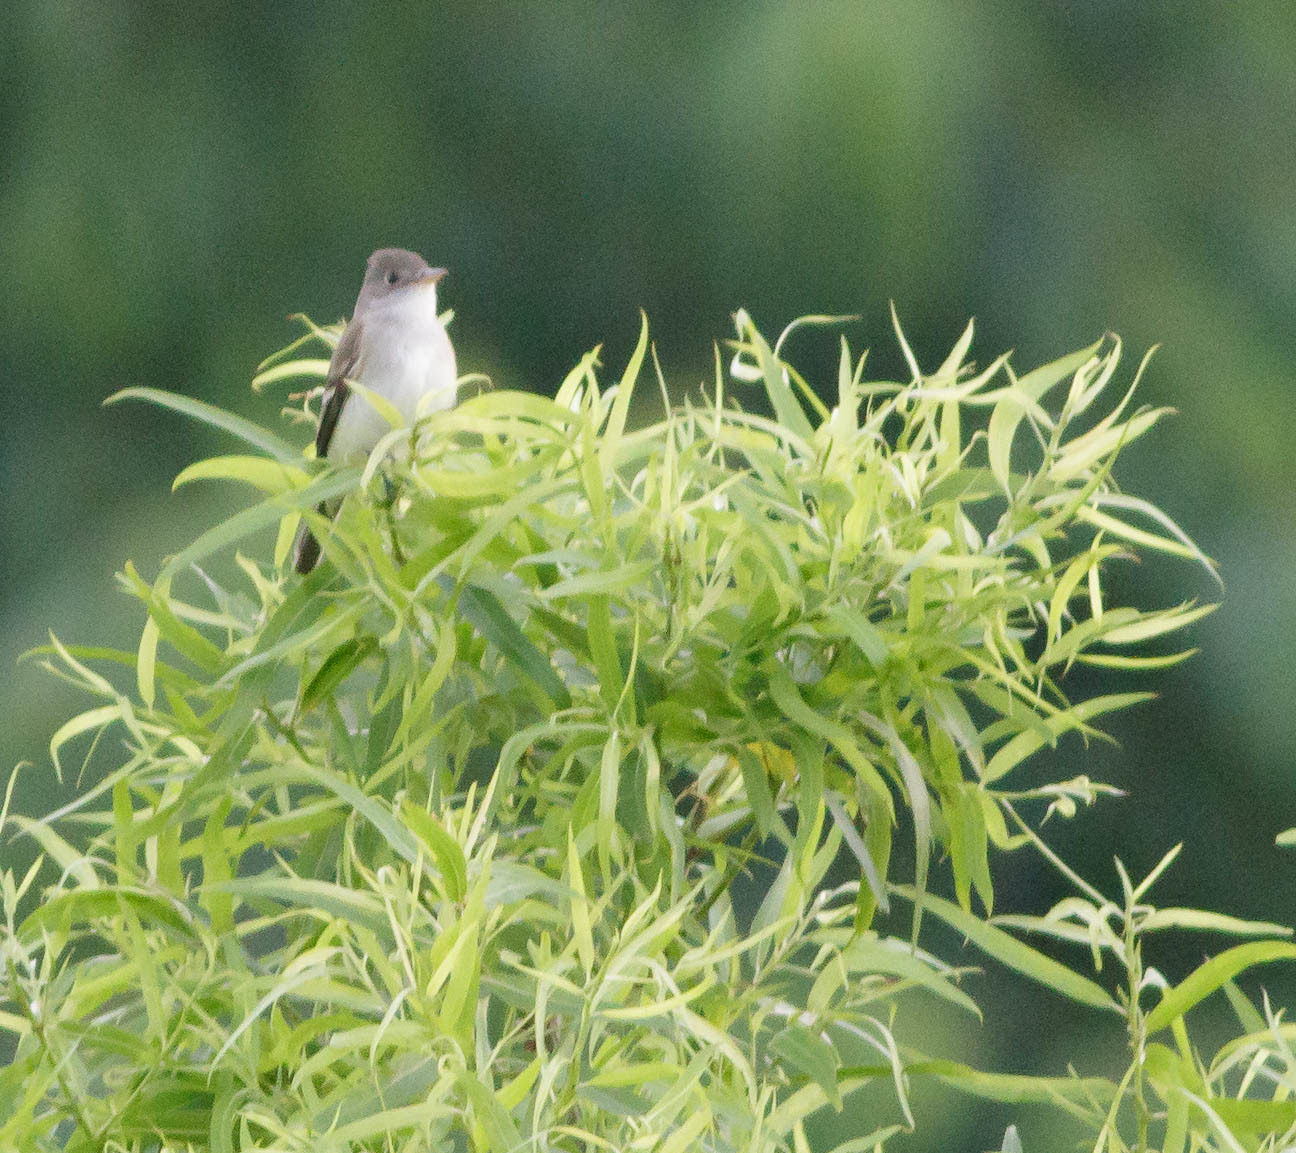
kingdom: Animalia
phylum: Chordata
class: Aves
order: Passeriformes
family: Tyrannidae
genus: Empidonax
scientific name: Empidonax traillii
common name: Willow flycatcher
